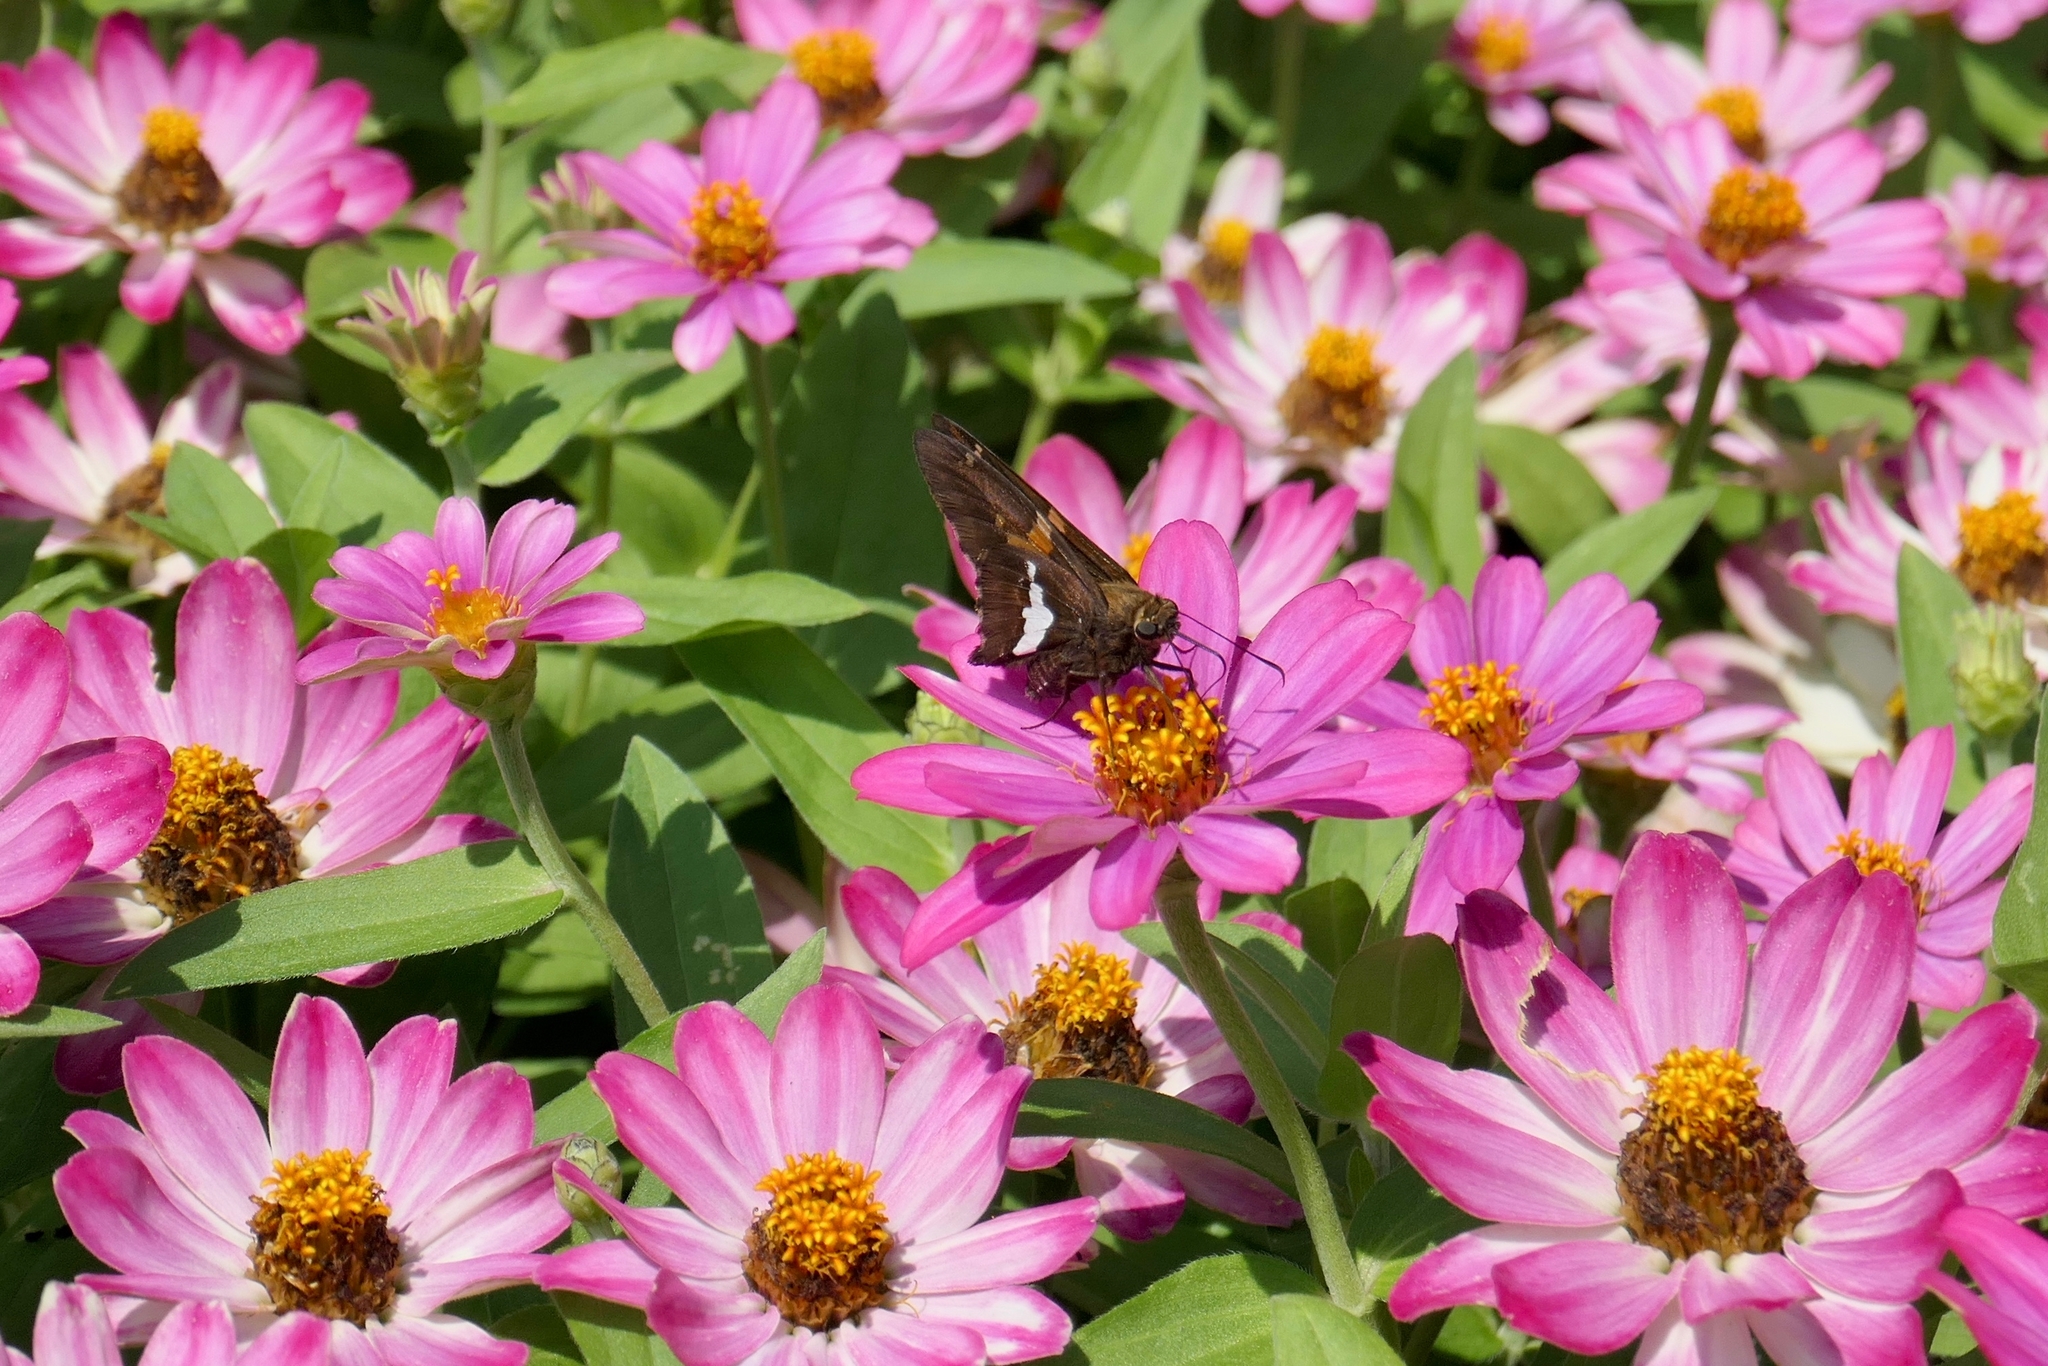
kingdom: Animalia
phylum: Arthropoda
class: Insecta
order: Lepidoptera
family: Hesperiidae
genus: Epargyreus
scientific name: Epargyreus clarus
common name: Silver-spotted skipper
